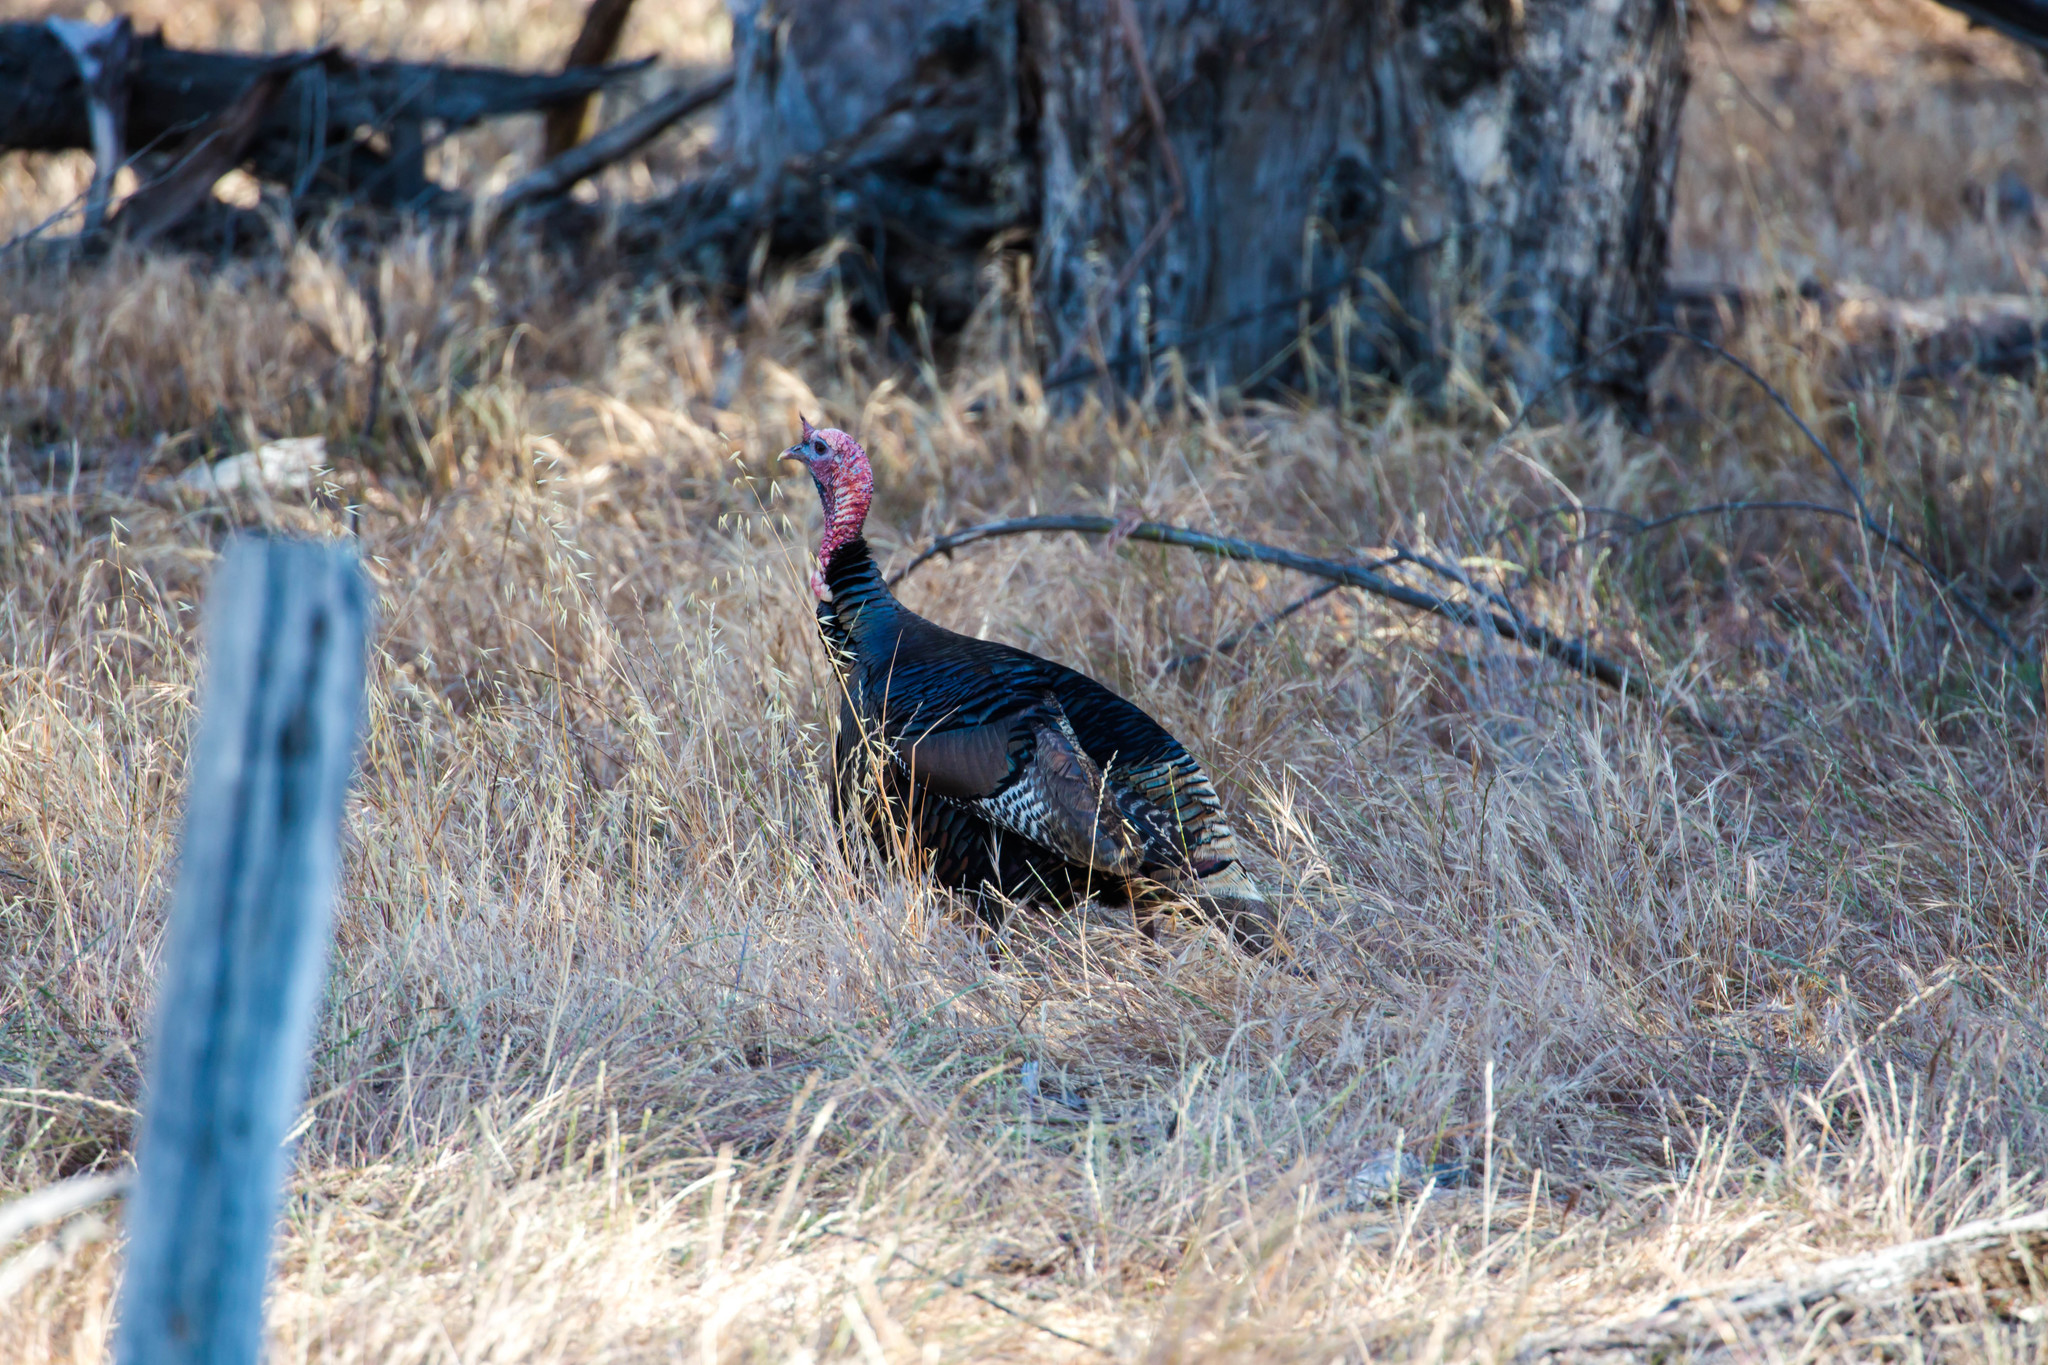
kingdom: Animalia
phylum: Chordata
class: Aves
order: Galliformes
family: Phasianidae
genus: Meleagris
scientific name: Meleagris gallopavo
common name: Wild turkey
